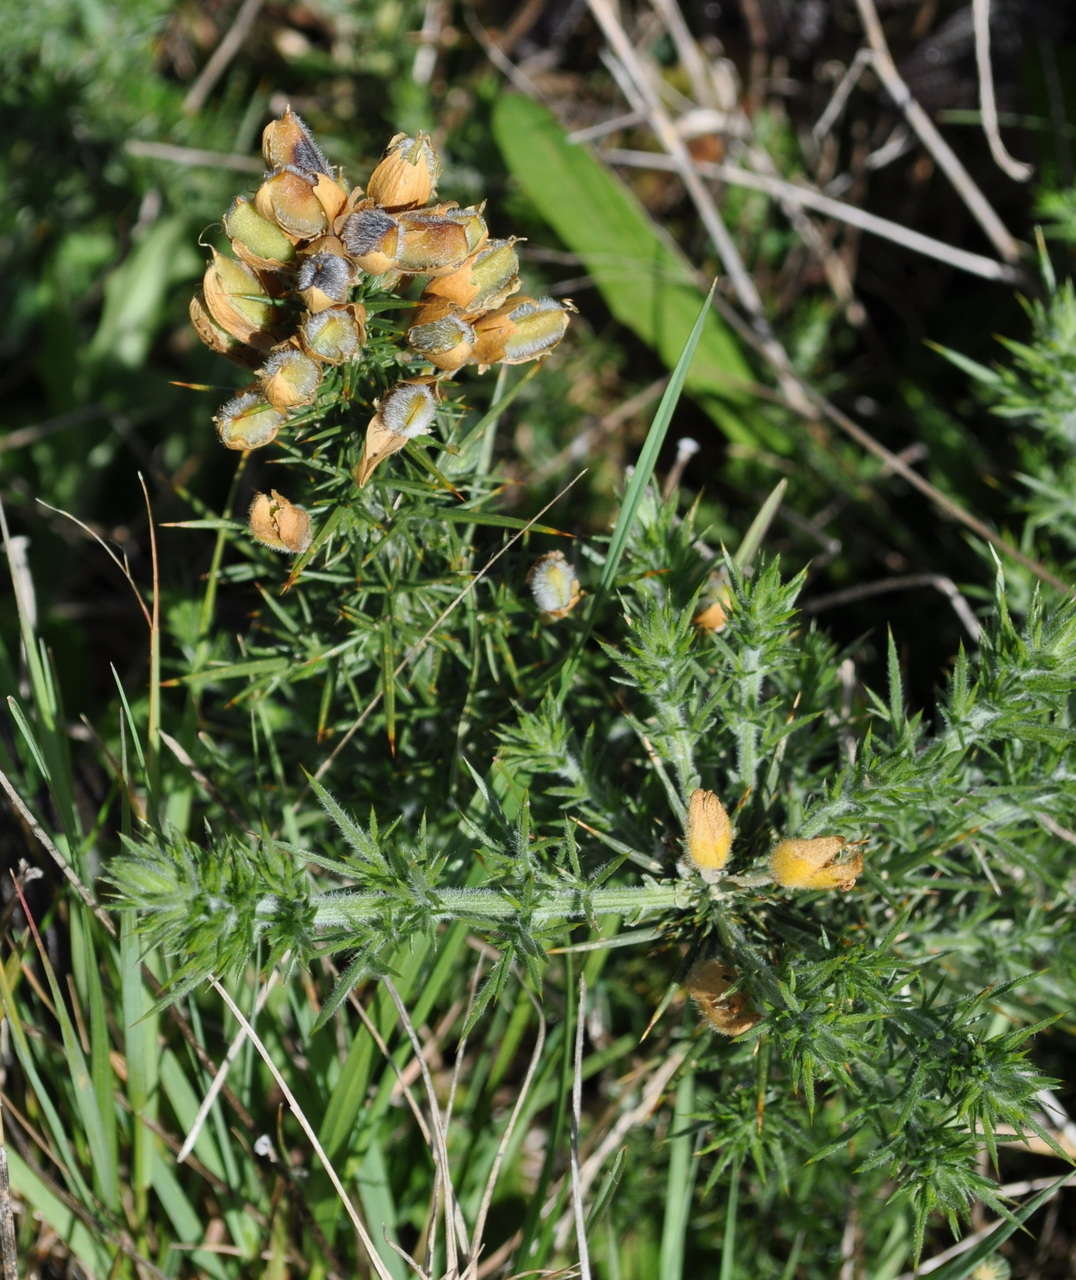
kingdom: Plantae
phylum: Tracheophyta
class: Magnoliopsida
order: Fabales
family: Fabaceae
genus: Ulex
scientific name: Ulex europaeus
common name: Common gorse
